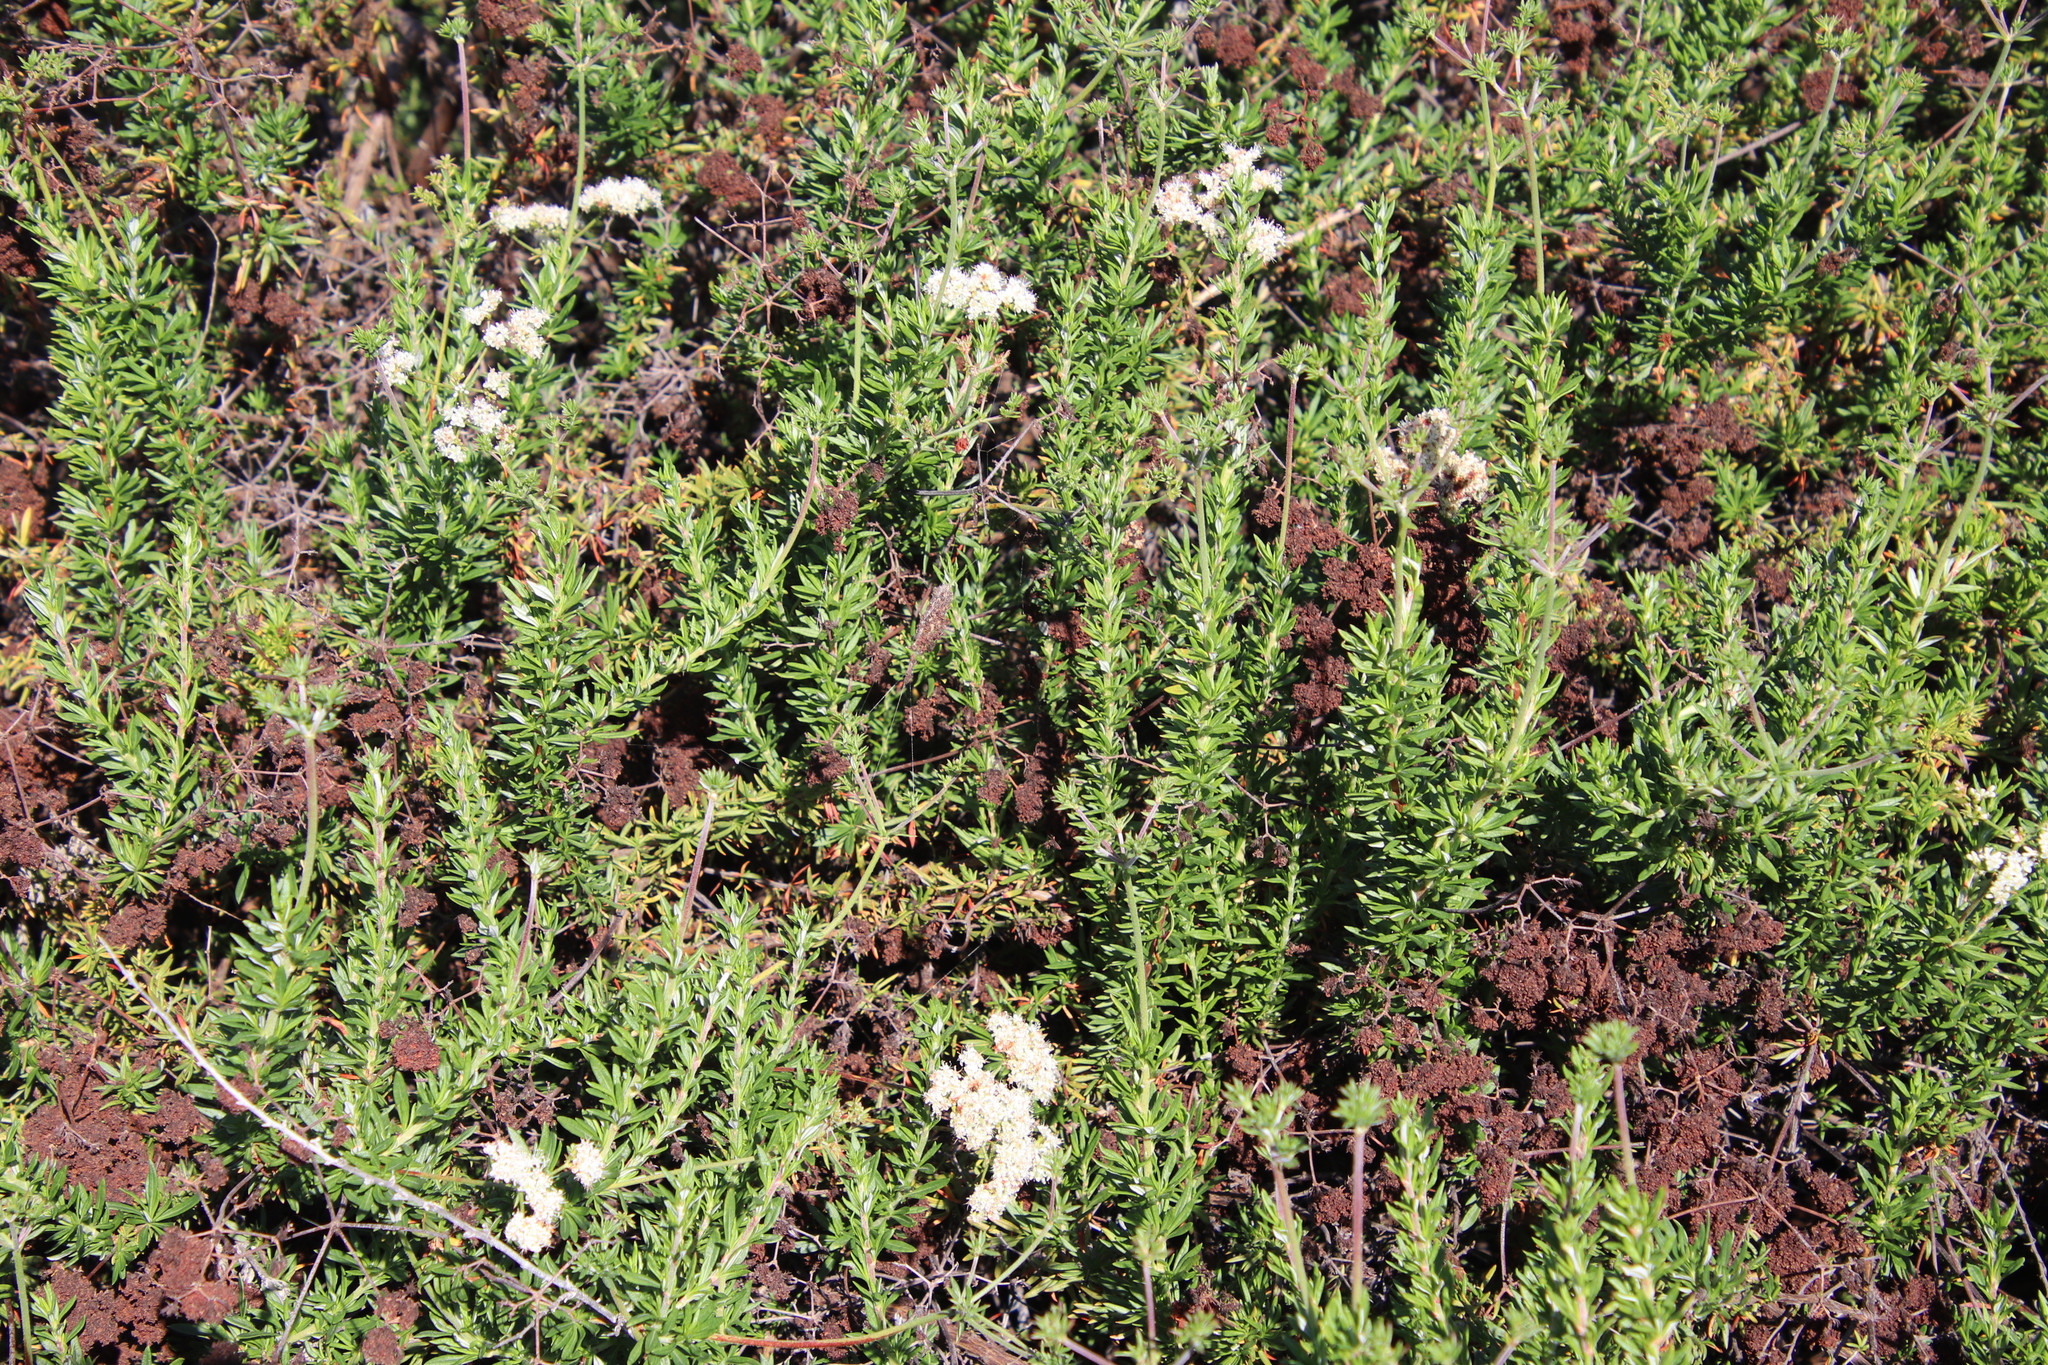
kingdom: Plantae
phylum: Tracheophyta
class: Magnoliopsida
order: Caryophyllales
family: Polygonaceae
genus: Eriogonum
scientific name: Eriogonum fasciculatum
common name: California wild buckwheat
